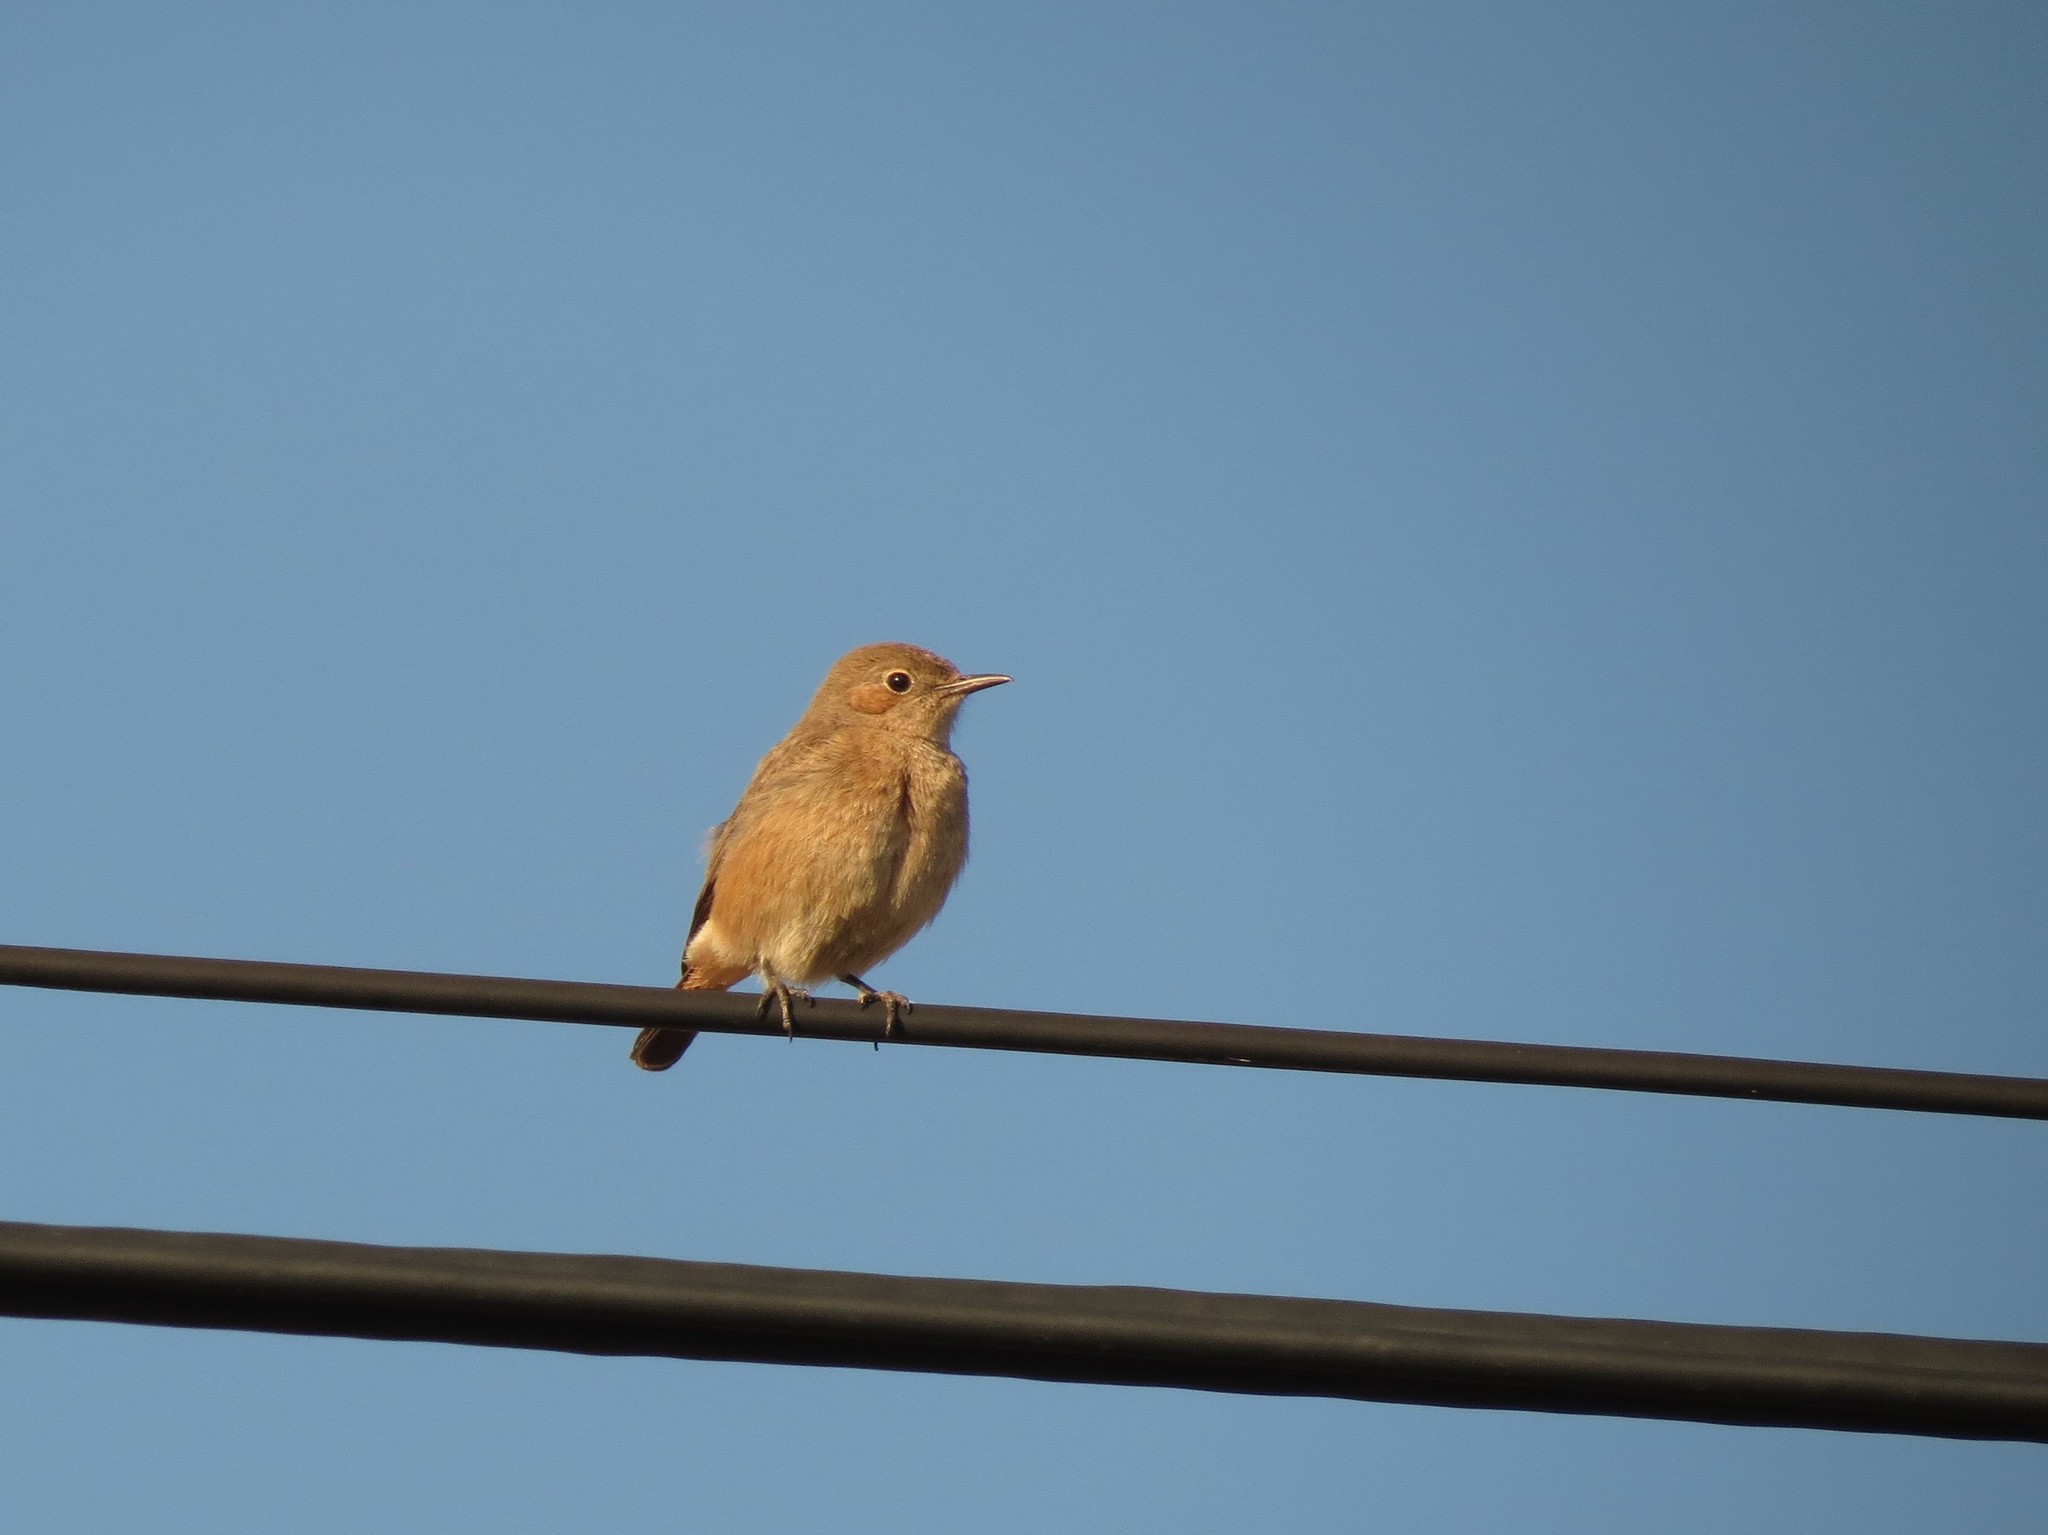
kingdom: Animalia
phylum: Chordata
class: Aves
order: Passeriformes
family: Muscicapidae
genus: Oenanthe
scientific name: Oenanthe familiaris
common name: Familiar chat
